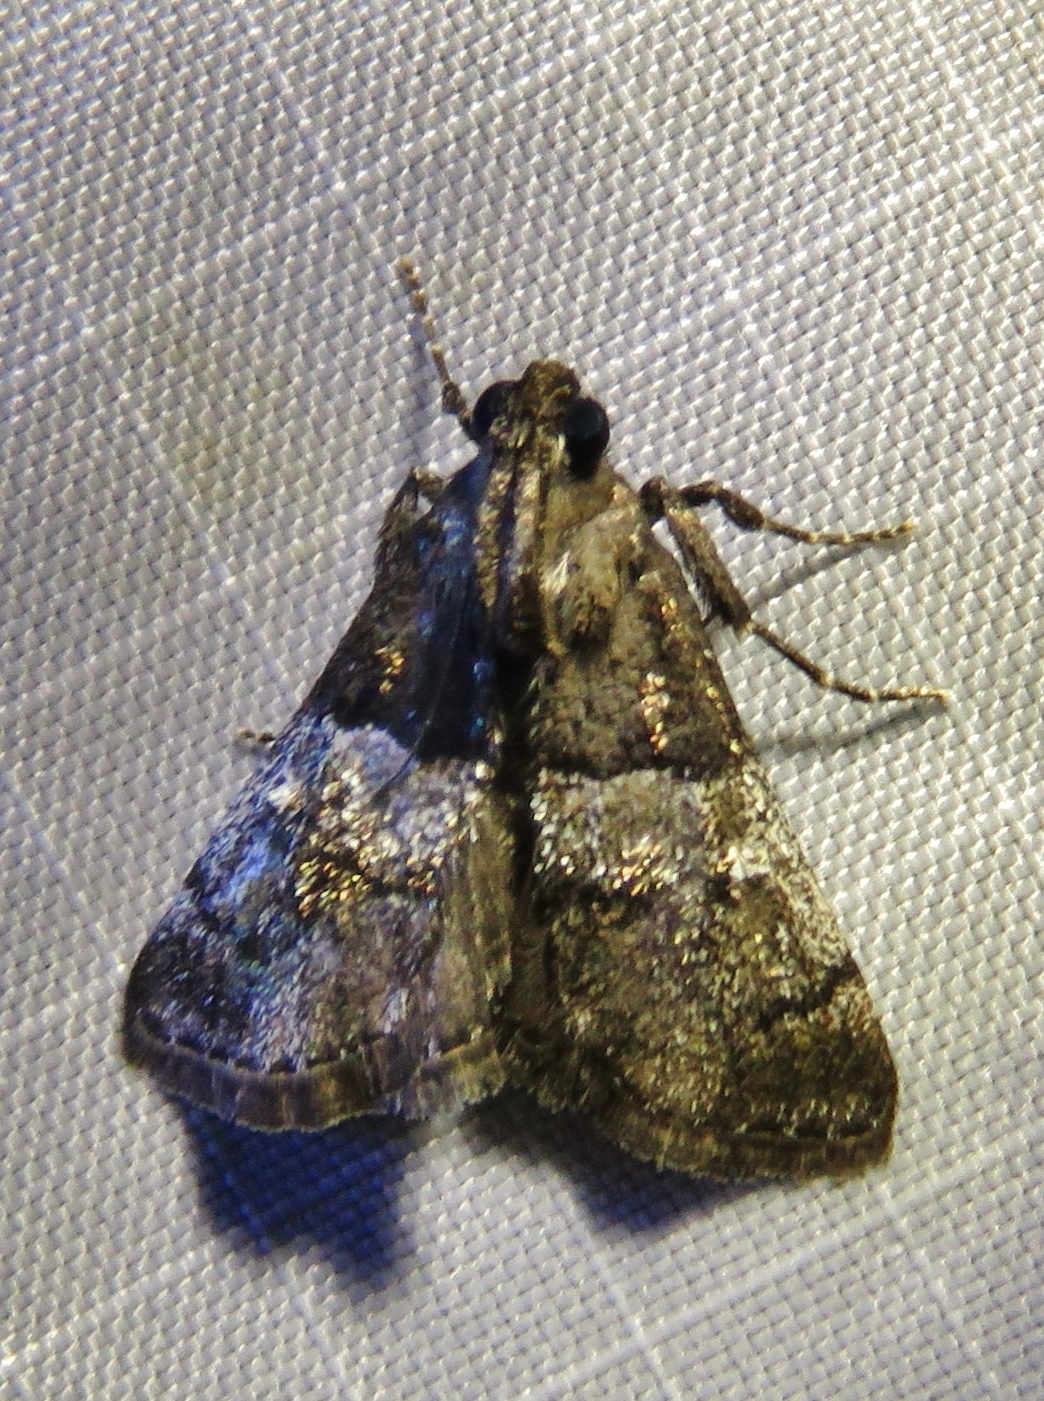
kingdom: Animalia
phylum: Arthropoda
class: Insecta
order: Lepidoptera
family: Pyralidae
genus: Macalla
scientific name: Macalla zelleri
